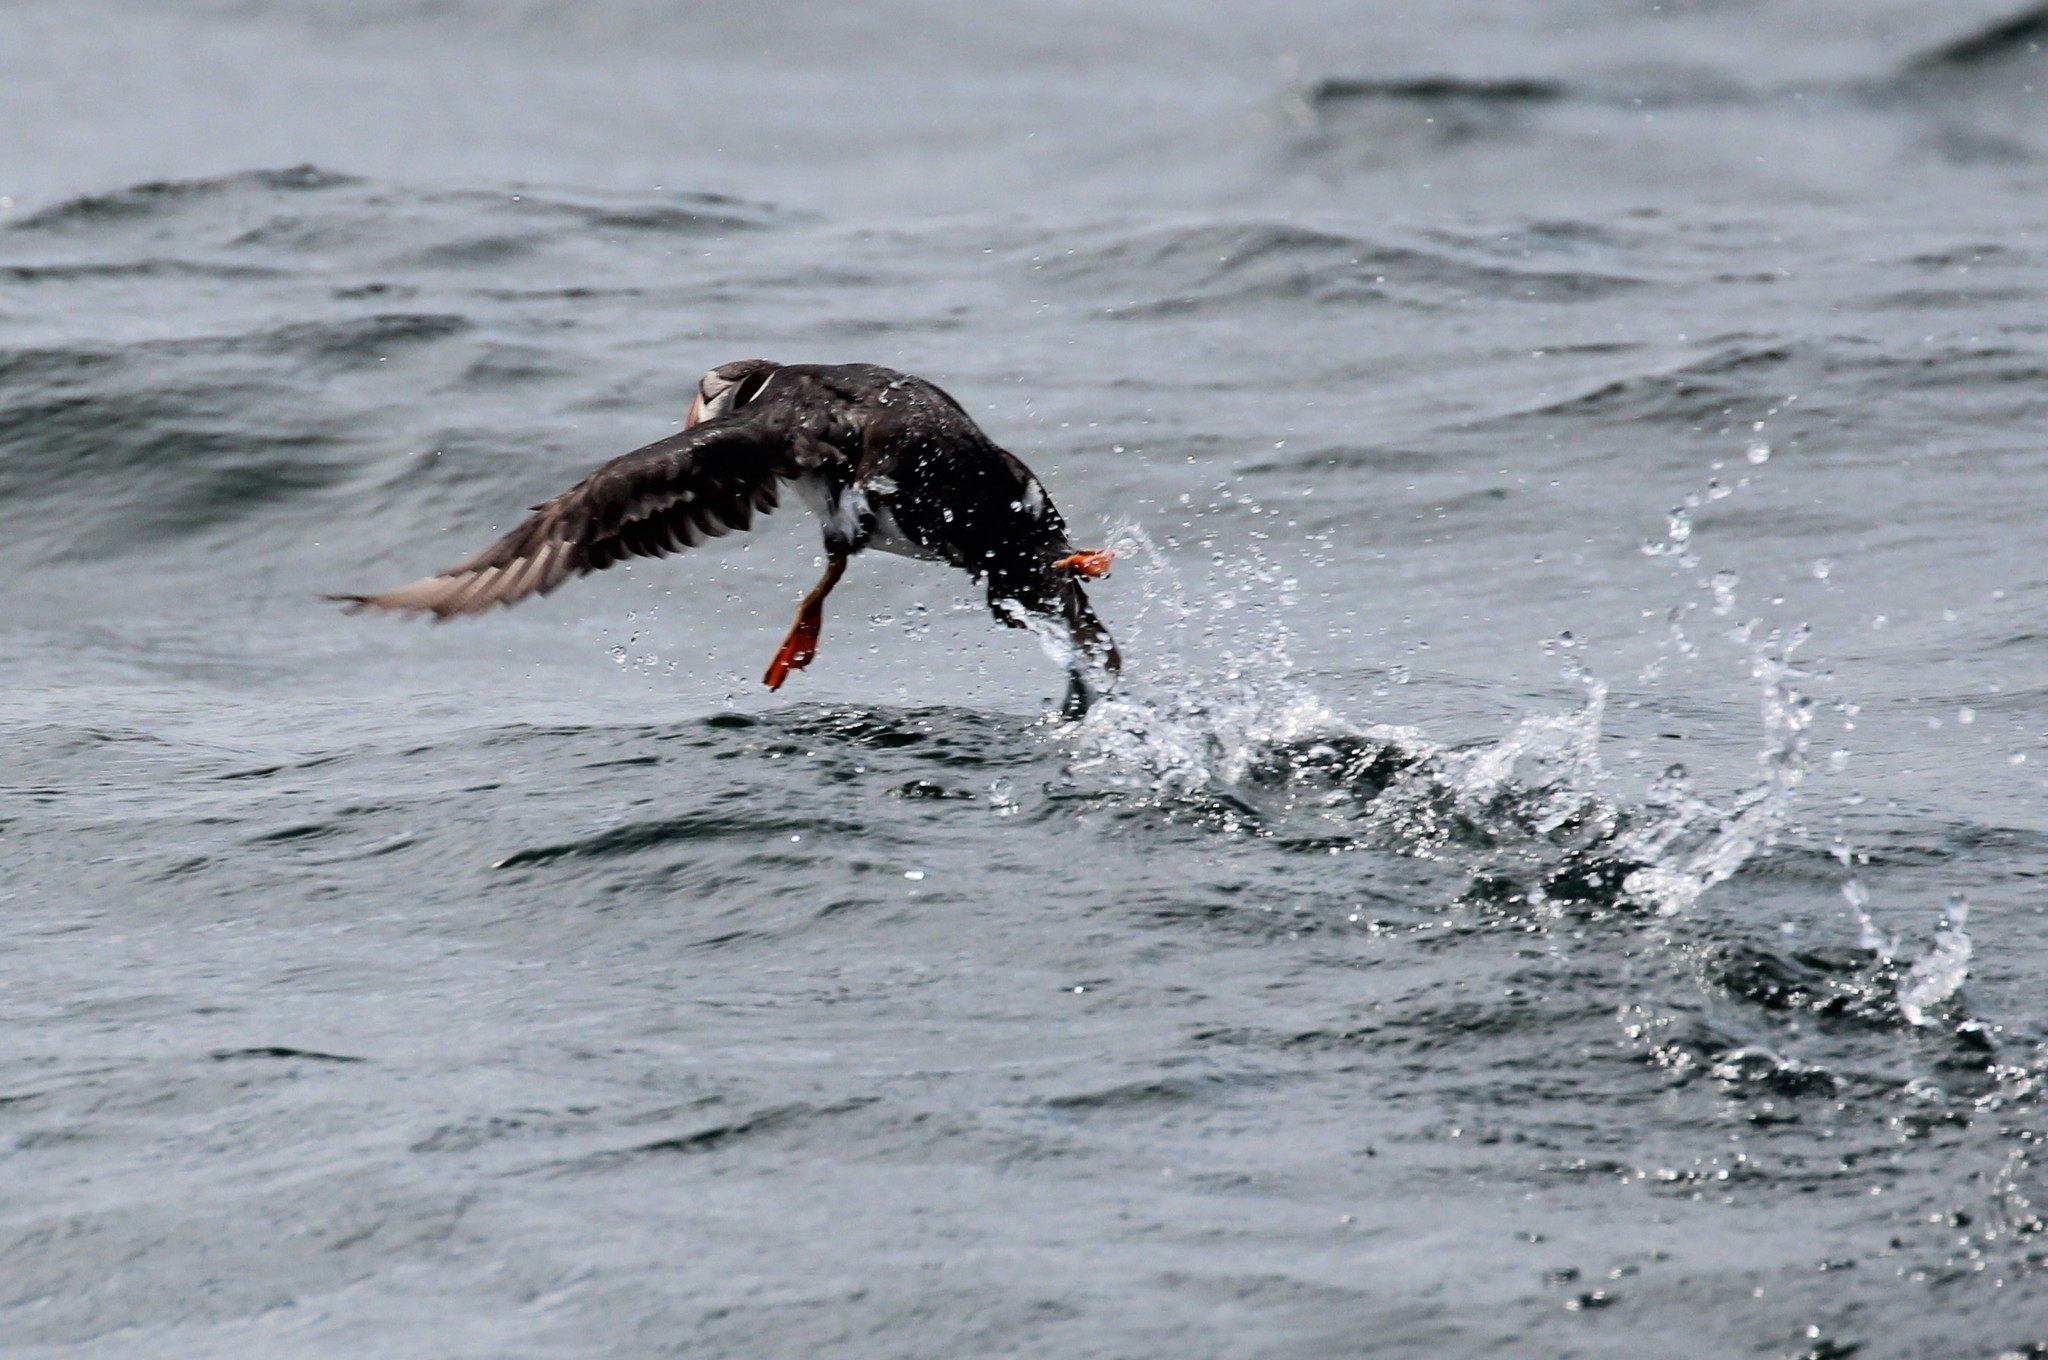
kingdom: Animalia
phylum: Chordata
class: Aves
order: Charadriiformes
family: Alcidae
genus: Fratercula
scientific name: Fratercula arctica
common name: Atlantic puffin
